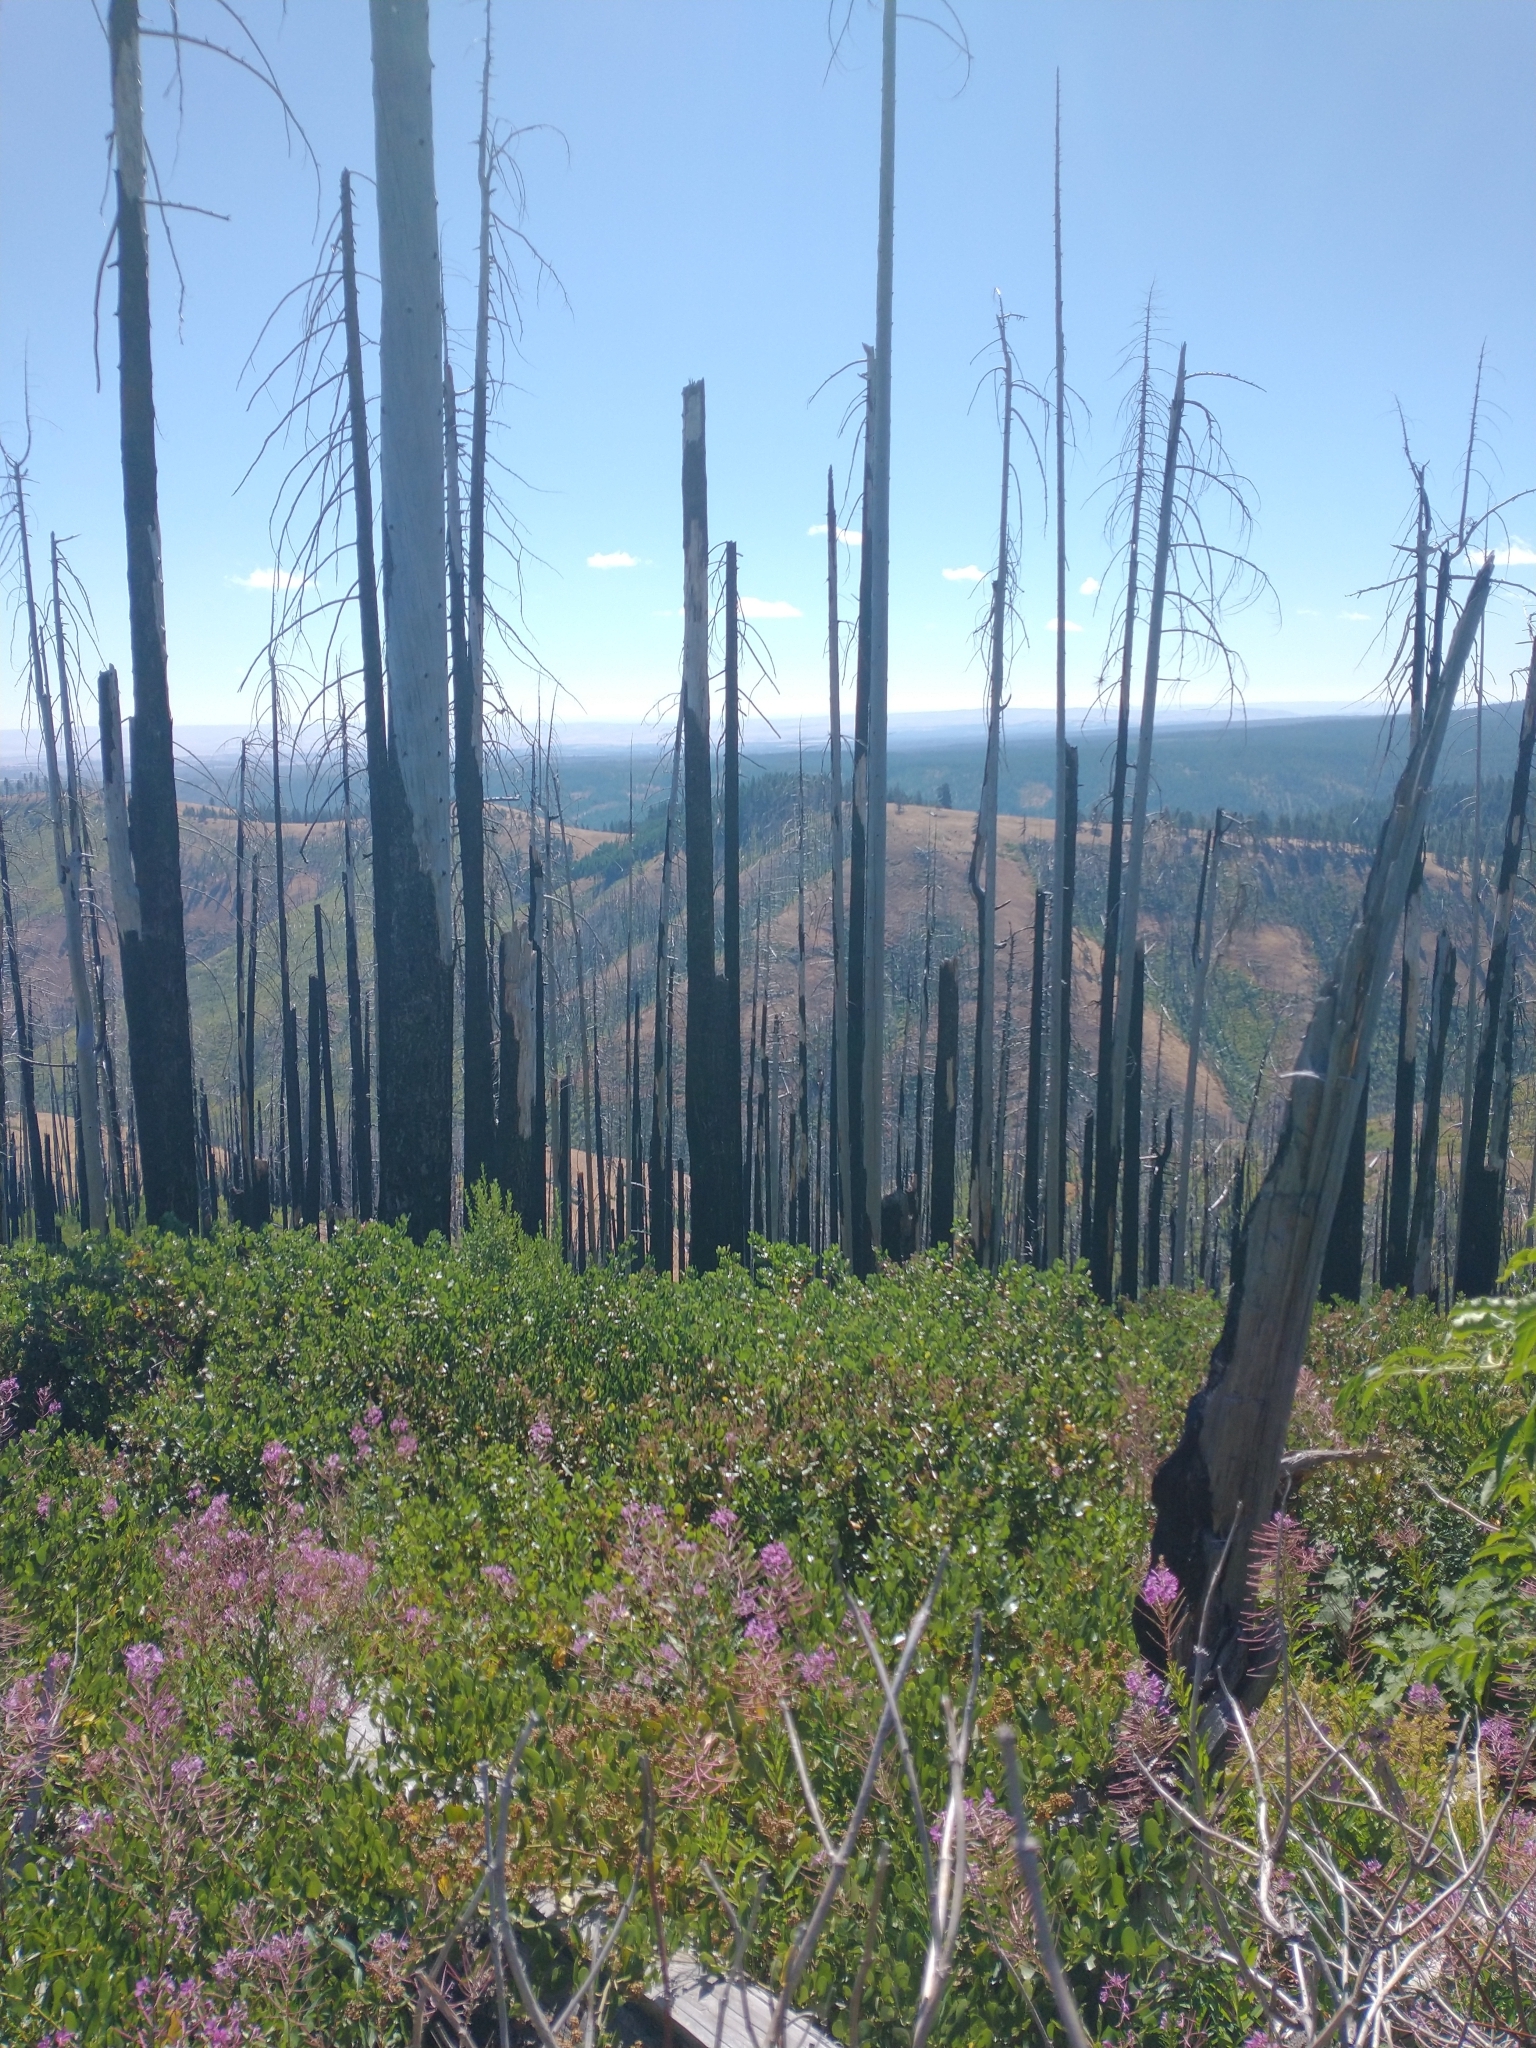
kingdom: Plantae
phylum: Tracheophyta
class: Magnoliopsida
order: Myrtales
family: Onagraceae
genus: Chamaenerion
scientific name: Chamaenerion angustifolium
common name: Fireweed
